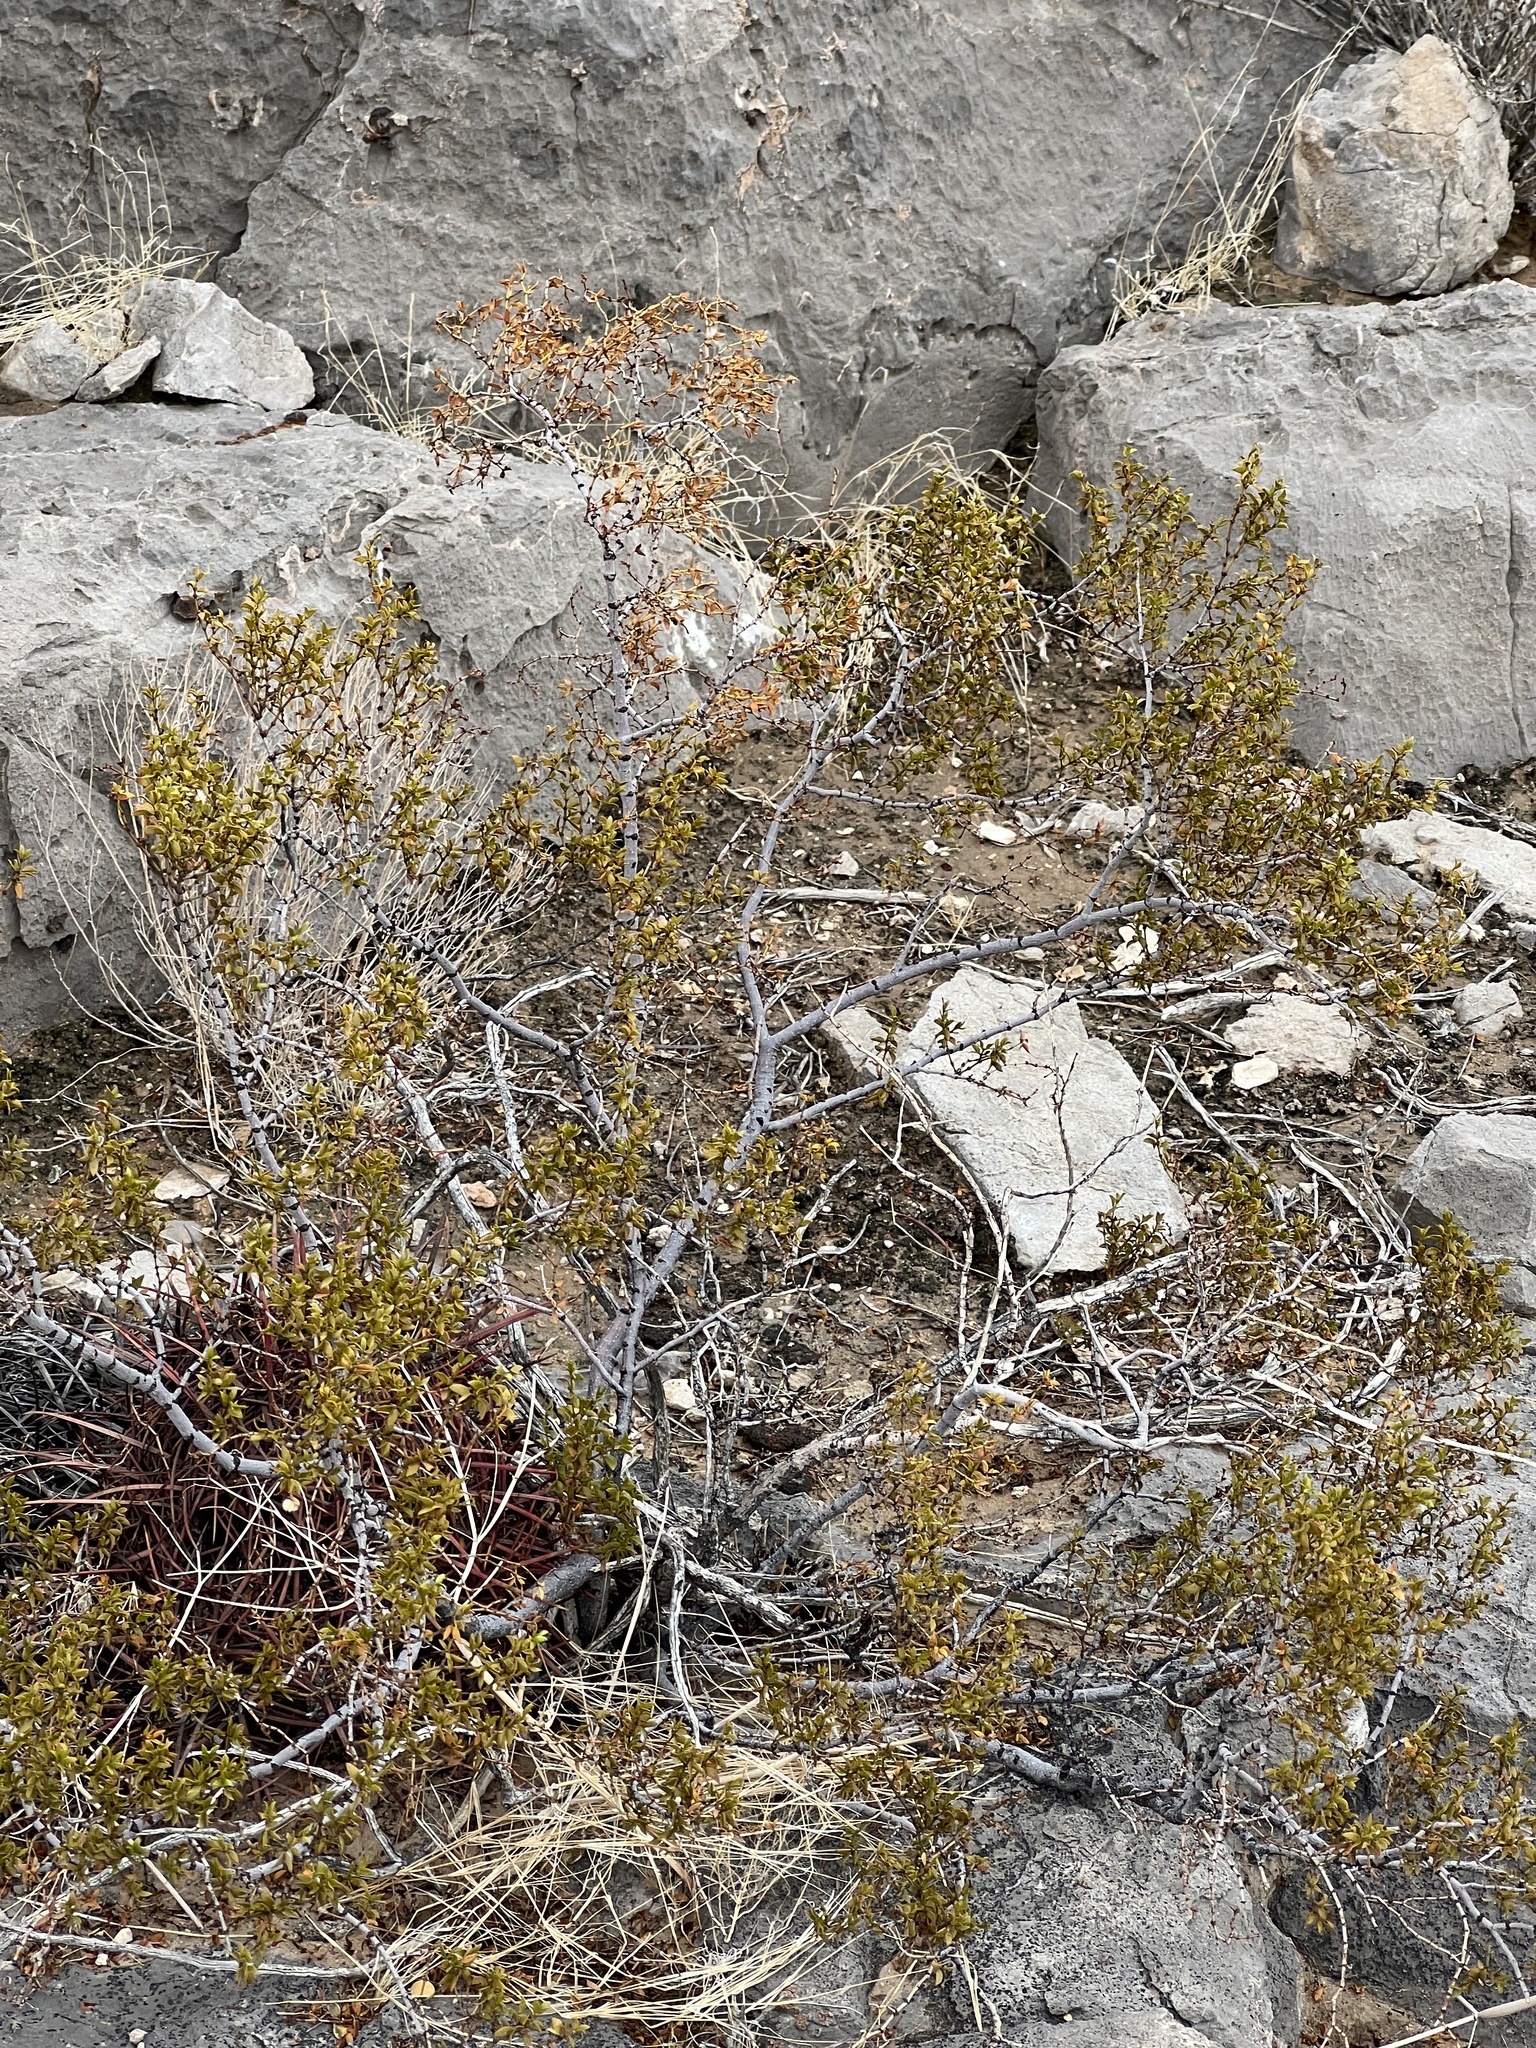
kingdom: Plantae
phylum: Tracheophyta
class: Magnoliopsida
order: Zygophyllales
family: Zygophyllaceae
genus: Larrea
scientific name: Larrea tridentata
